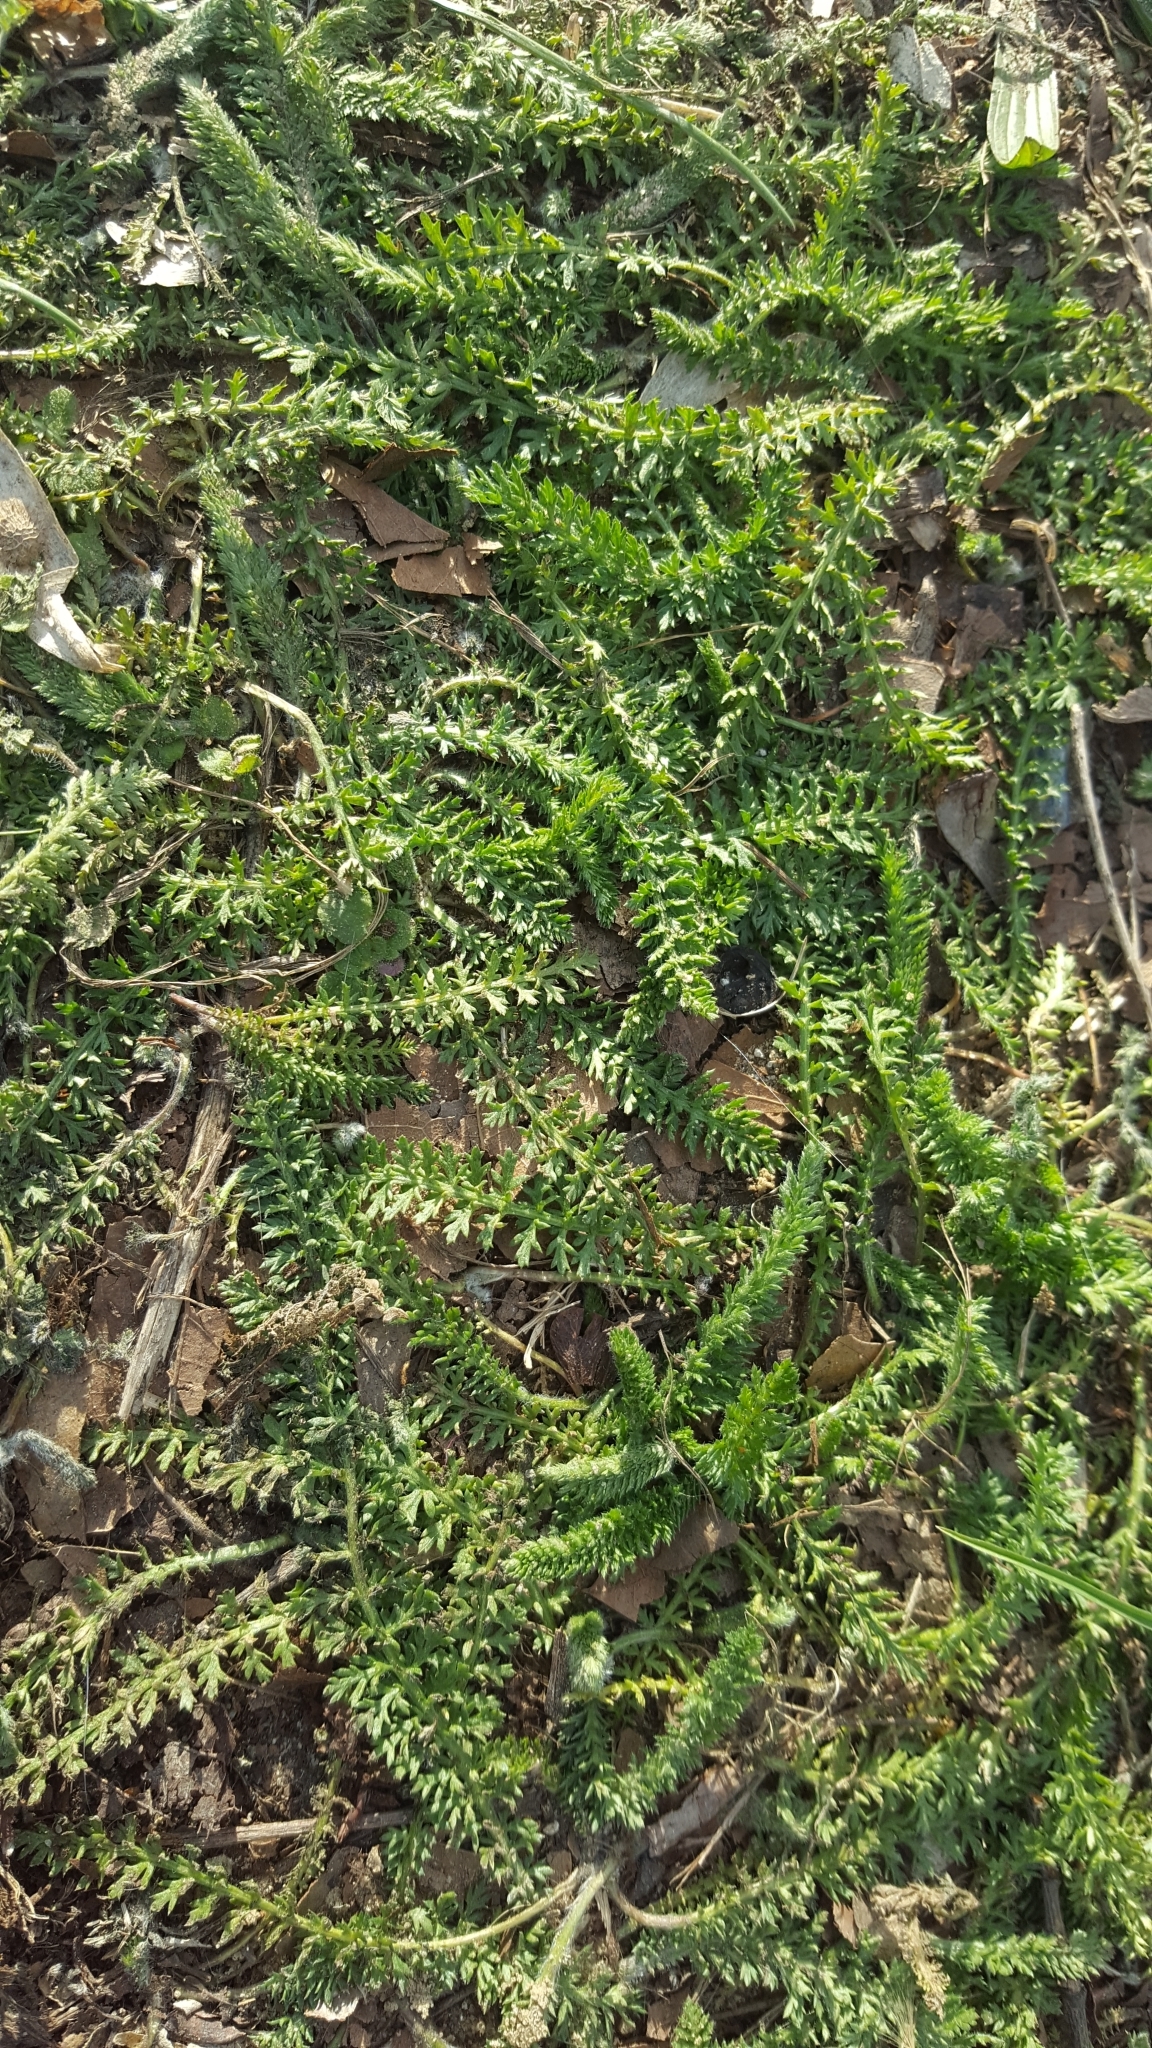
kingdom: Plantae
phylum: Tracheophyta
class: Magnoliopsida
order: Asterales
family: Asteraceae
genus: Achillea
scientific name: Achillea millefolium
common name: Yarrow
